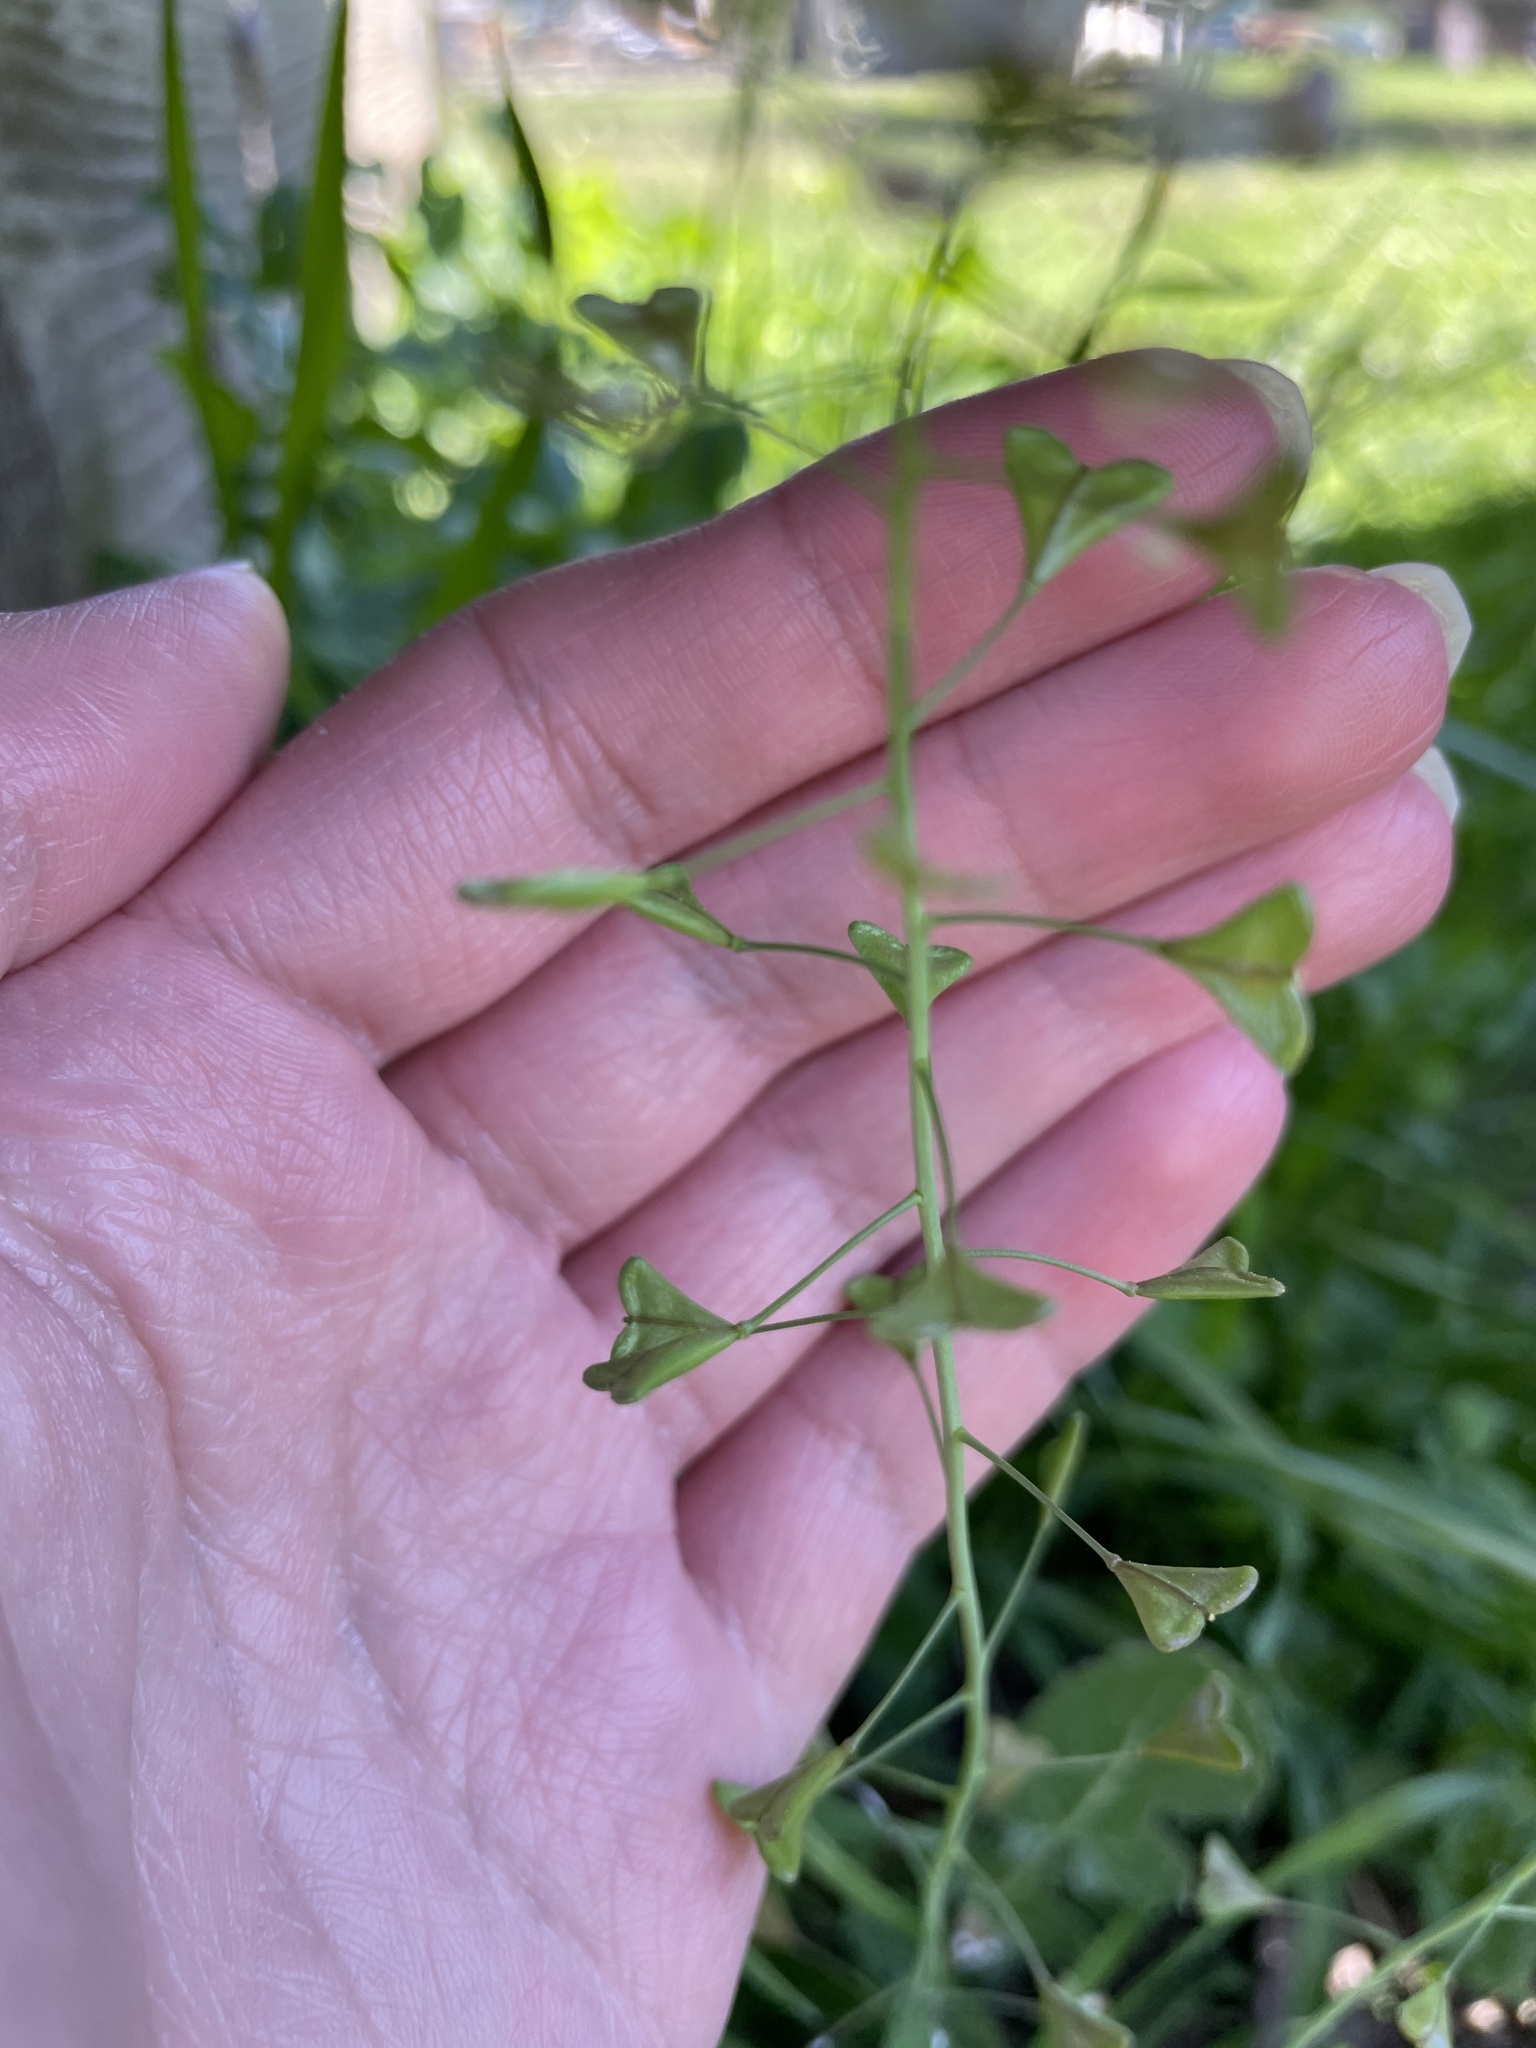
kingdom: Plantae
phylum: Tracheophyta
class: Magnoliopsida
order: Brassicales
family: Brassicaceae
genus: Capsella
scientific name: Capsella bursa-pastoris
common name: Shepherd's purse
